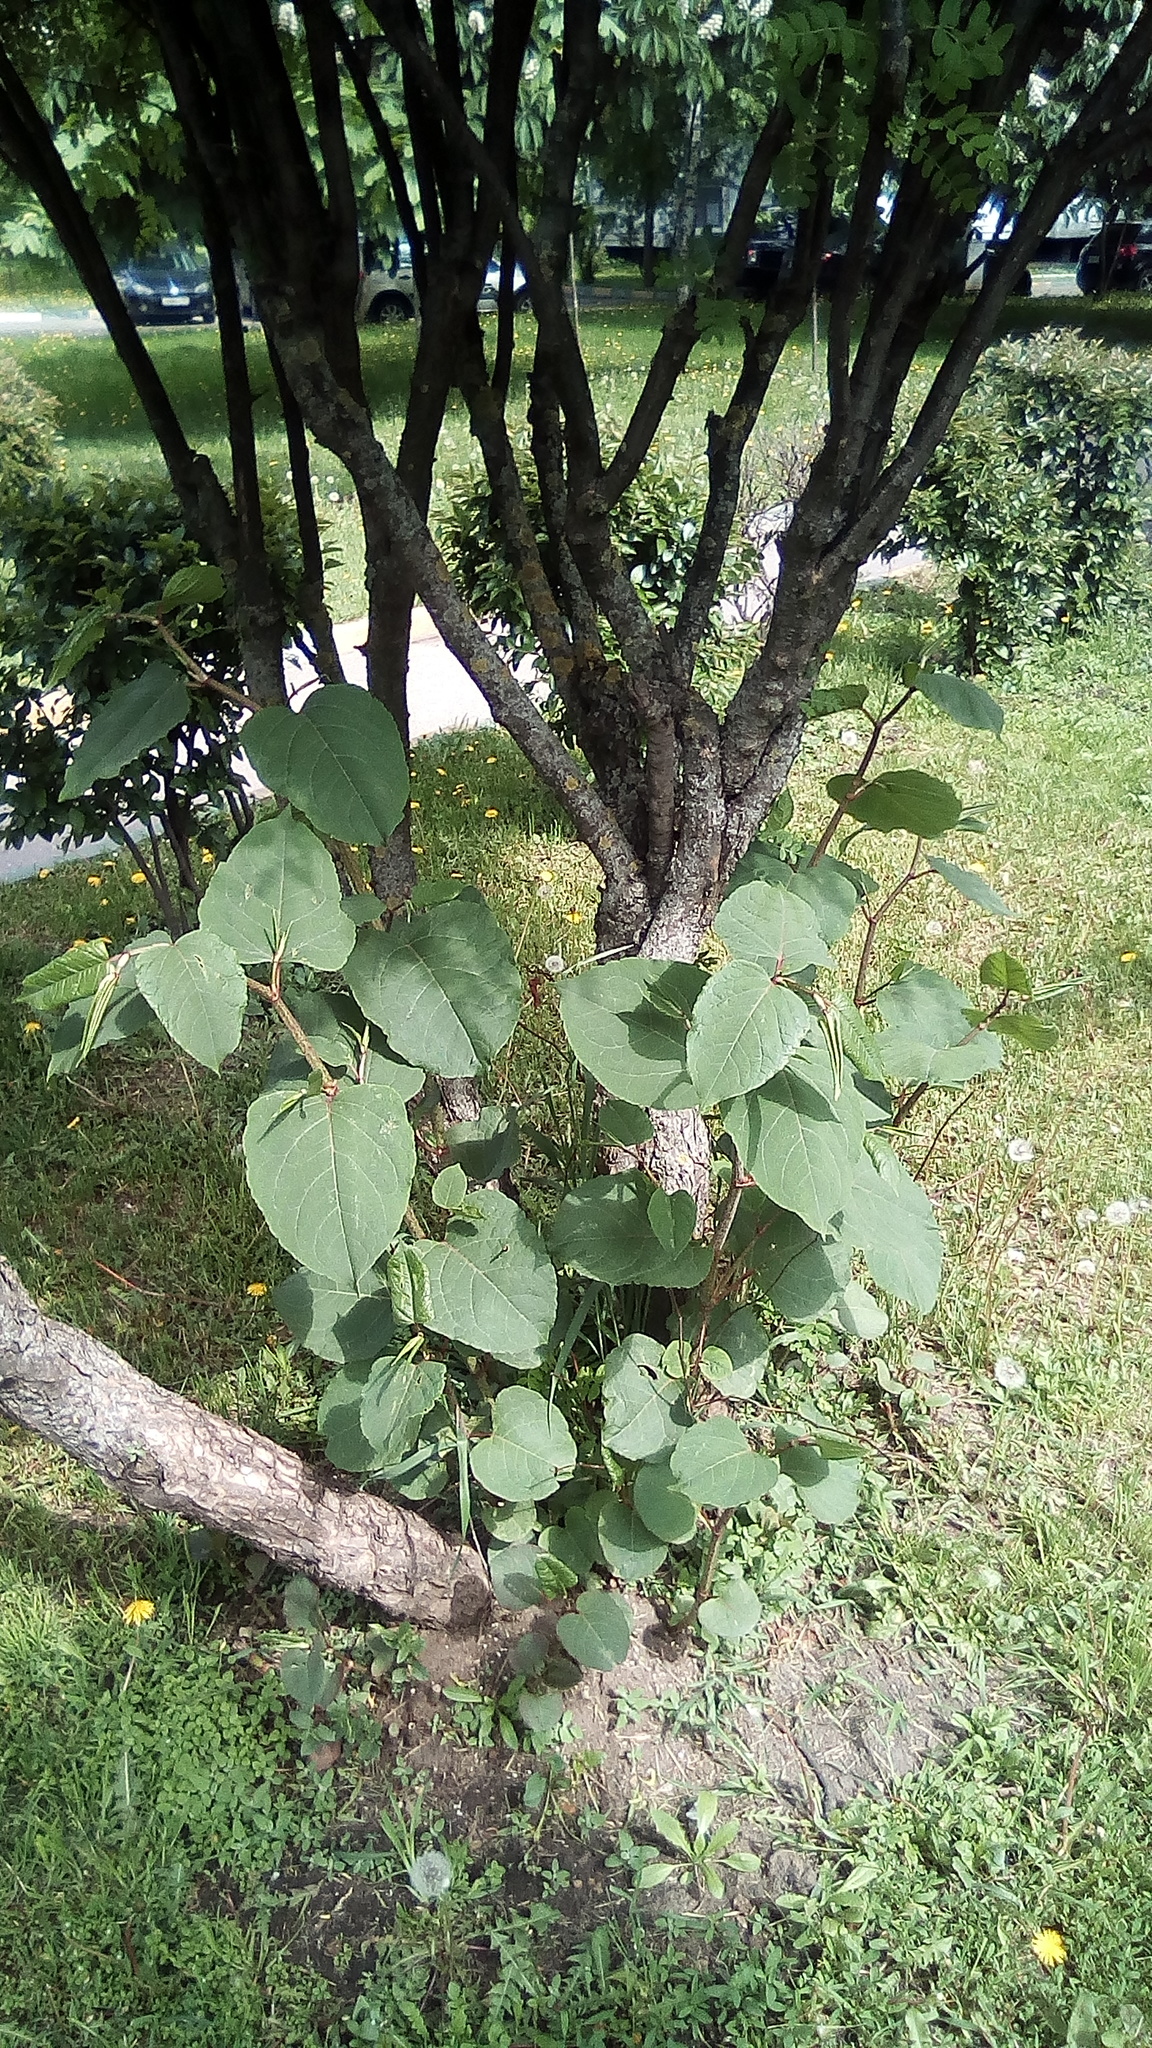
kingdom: Plantae
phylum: Tracheophyta
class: Magnoliopsida
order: Caryophyllales
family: Polygonaceae
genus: Reynoutria
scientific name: Reynoutria bohemica
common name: Bohemian knotweed
